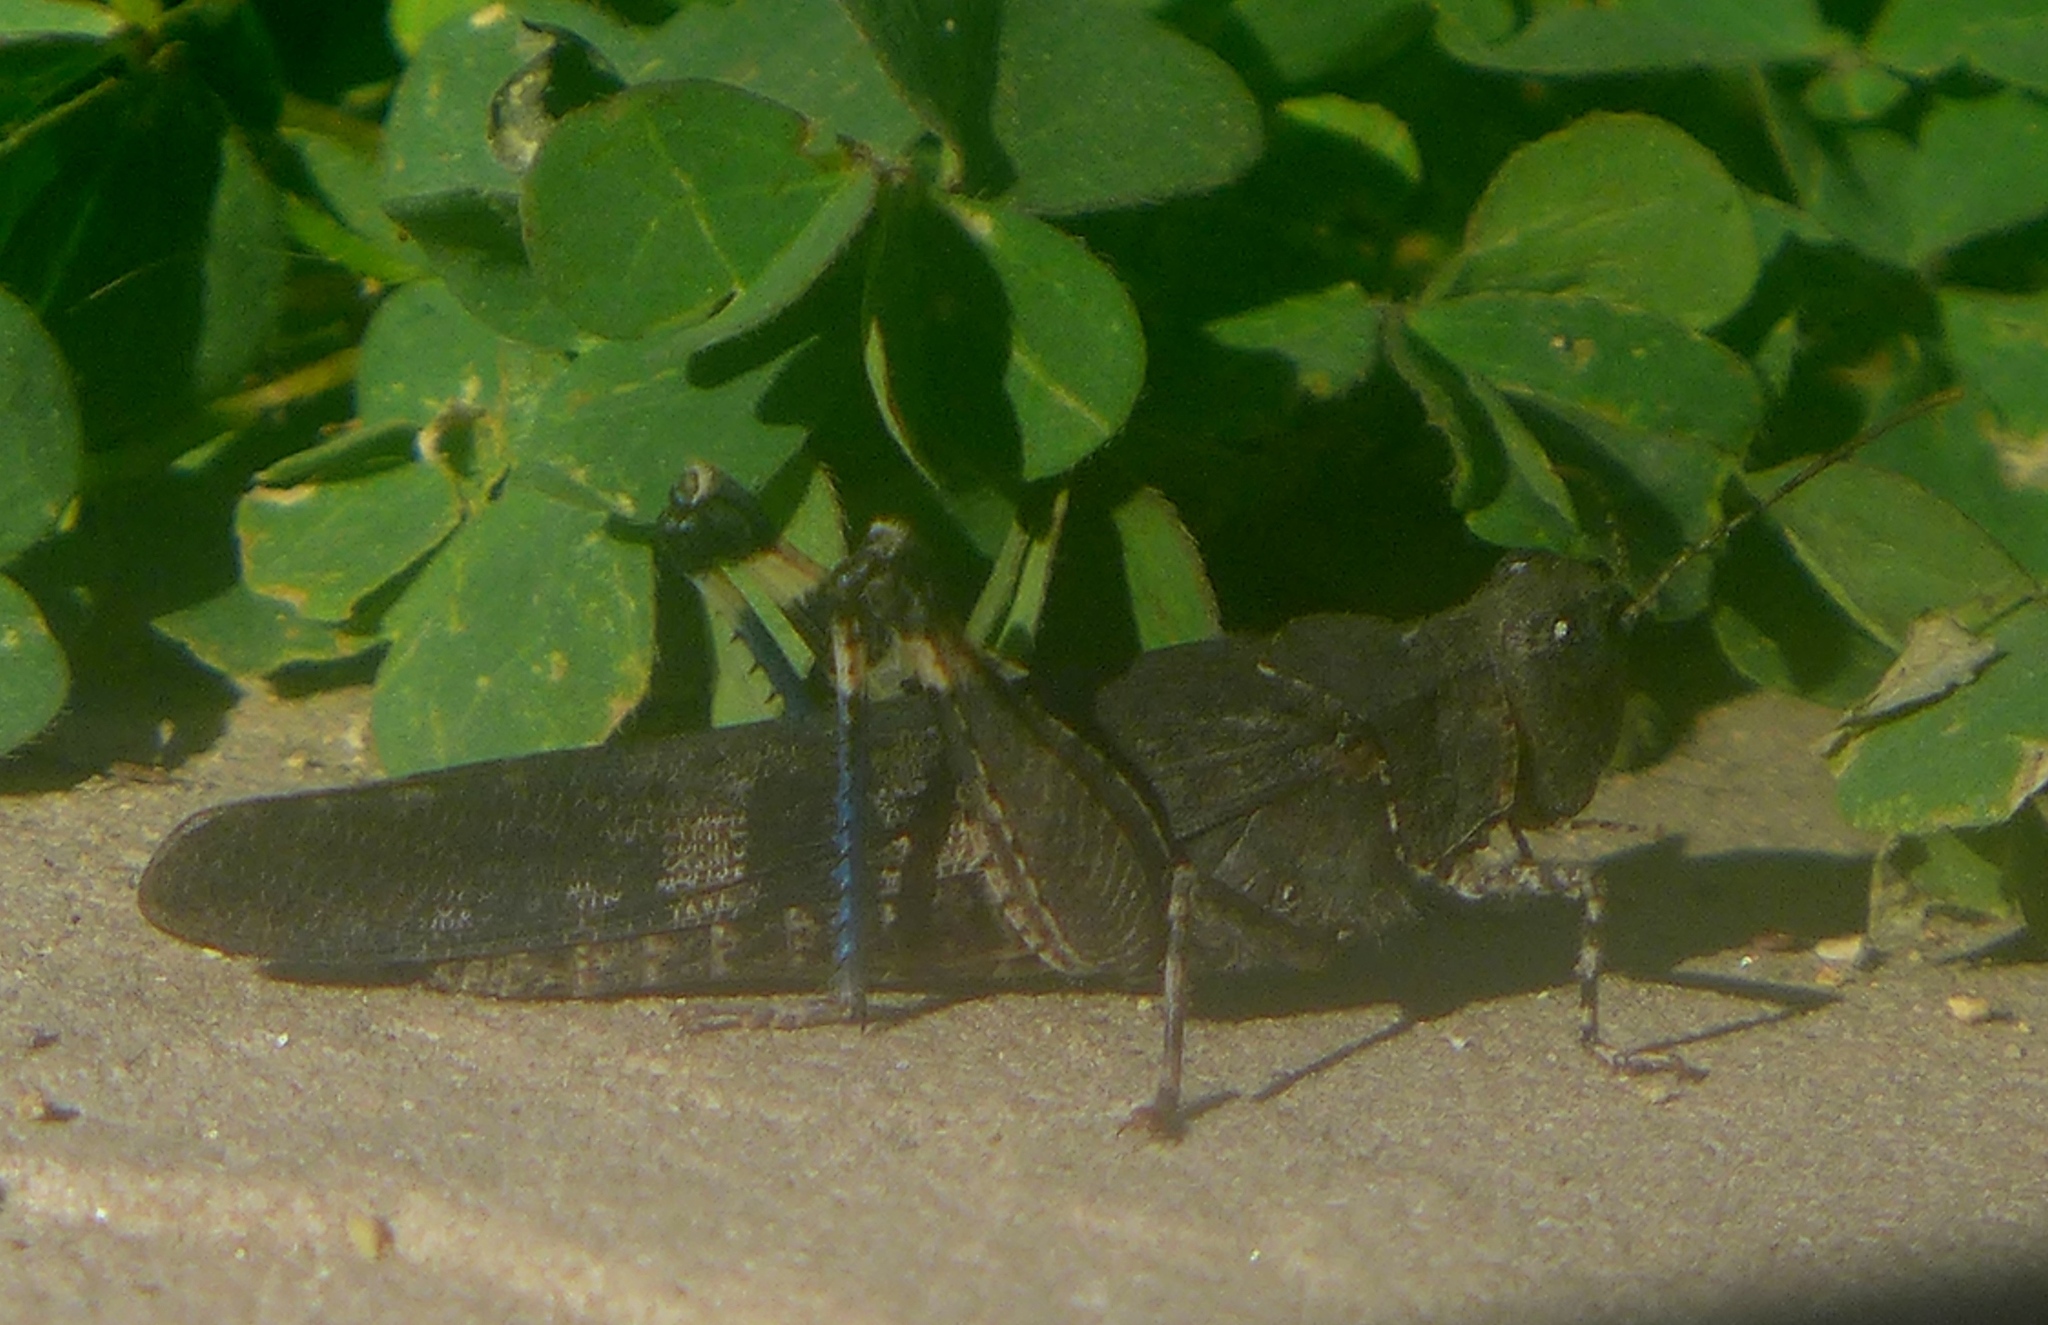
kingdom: Animalia
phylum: Arthropoda
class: Insecta
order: Orthoptera
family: Acrididae
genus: Trimerotropis
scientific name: Trimerotropis fontana
